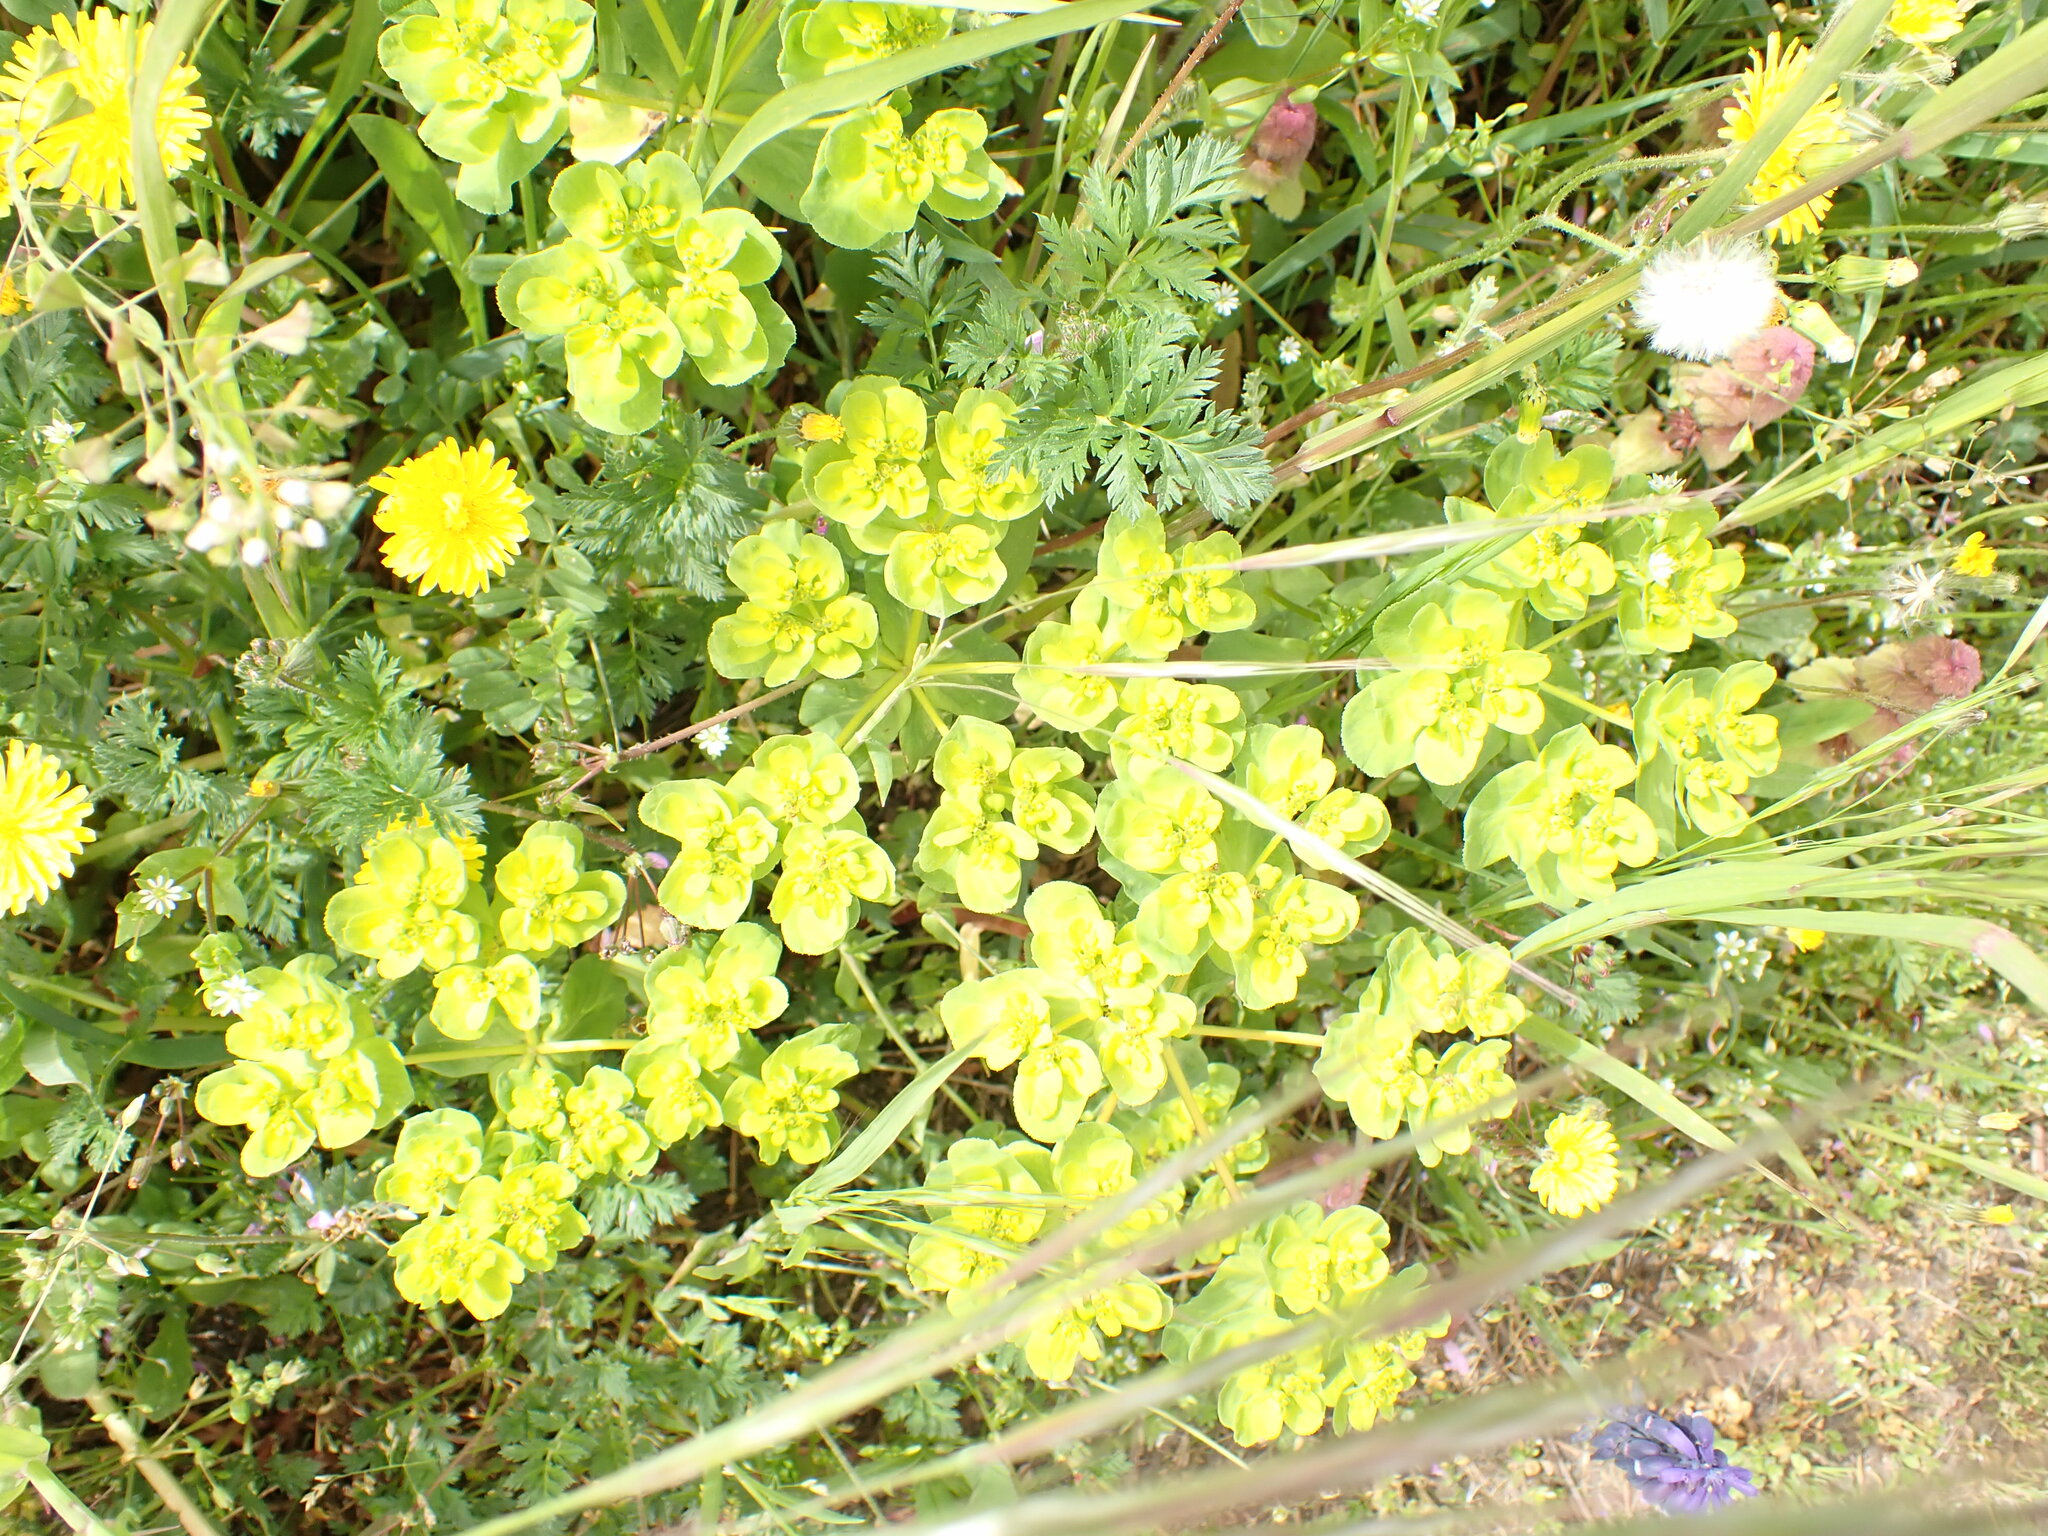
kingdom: Plantae
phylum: Tracheophyta
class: Magnoliopsida
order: Malpighiales
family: Euphorbiaceae
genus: Euphorbia
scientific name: Euphorbia helioscopia
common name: Sun spurge
